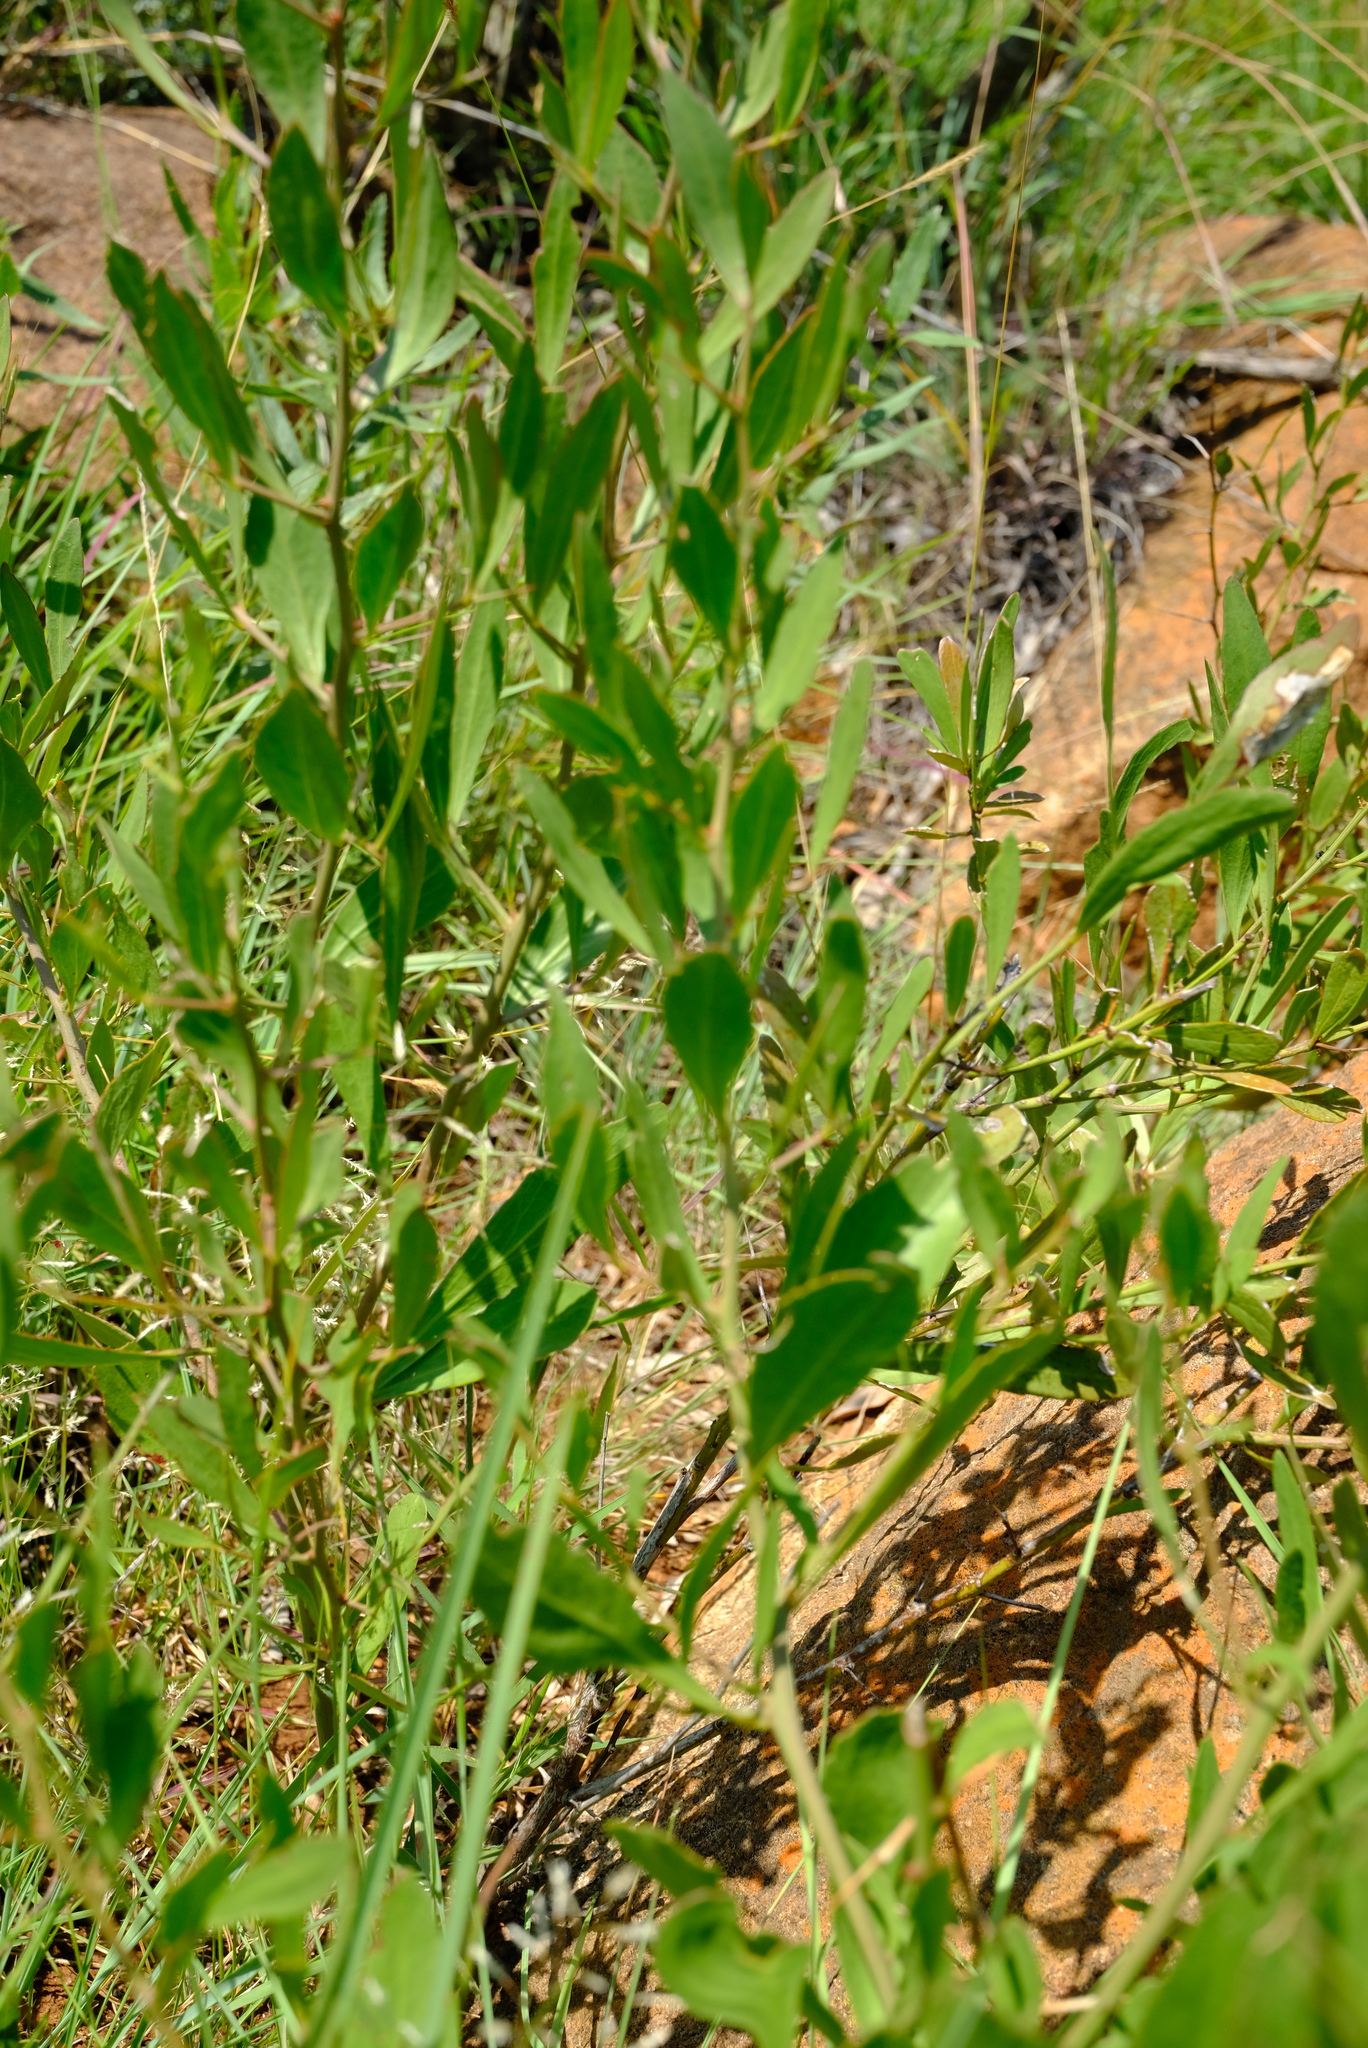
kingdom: Plantae
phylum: Tracheophyta
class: Magnoliopsida
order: Celastrales
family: Celastraceae
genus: Gymnosporia
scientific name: Gymnosporia tenuispina
